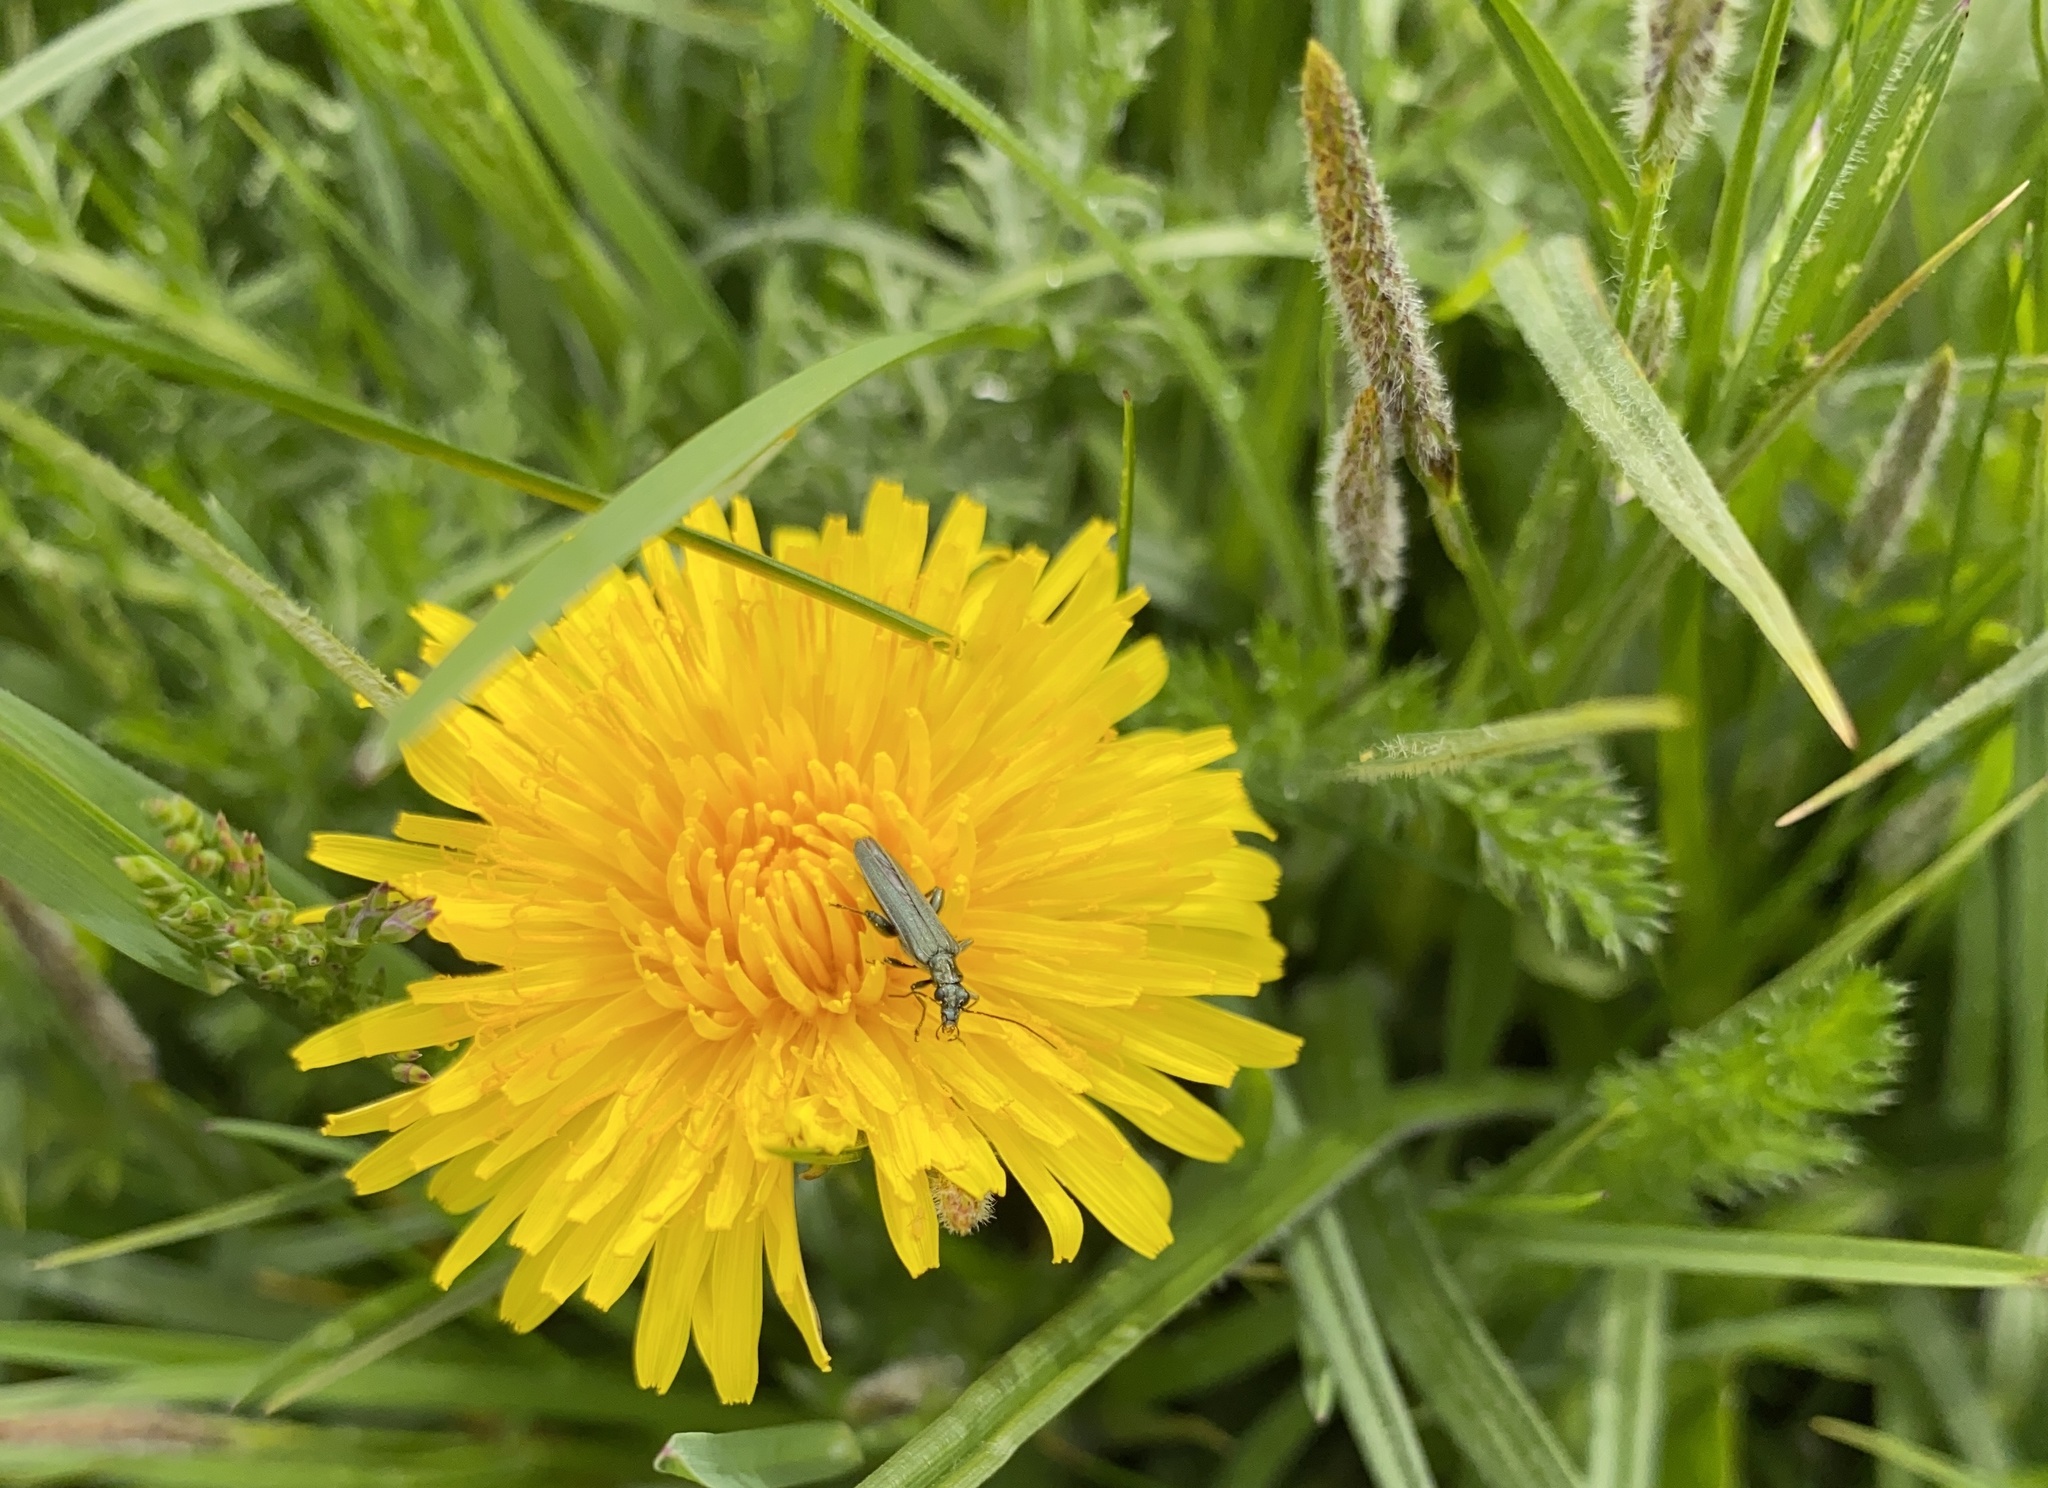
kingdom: Animalia
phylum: Arthropoda
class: Insecta
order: Coleoptera
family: Oedemeridae
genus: Oedemera
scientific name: Oedemera virescens
